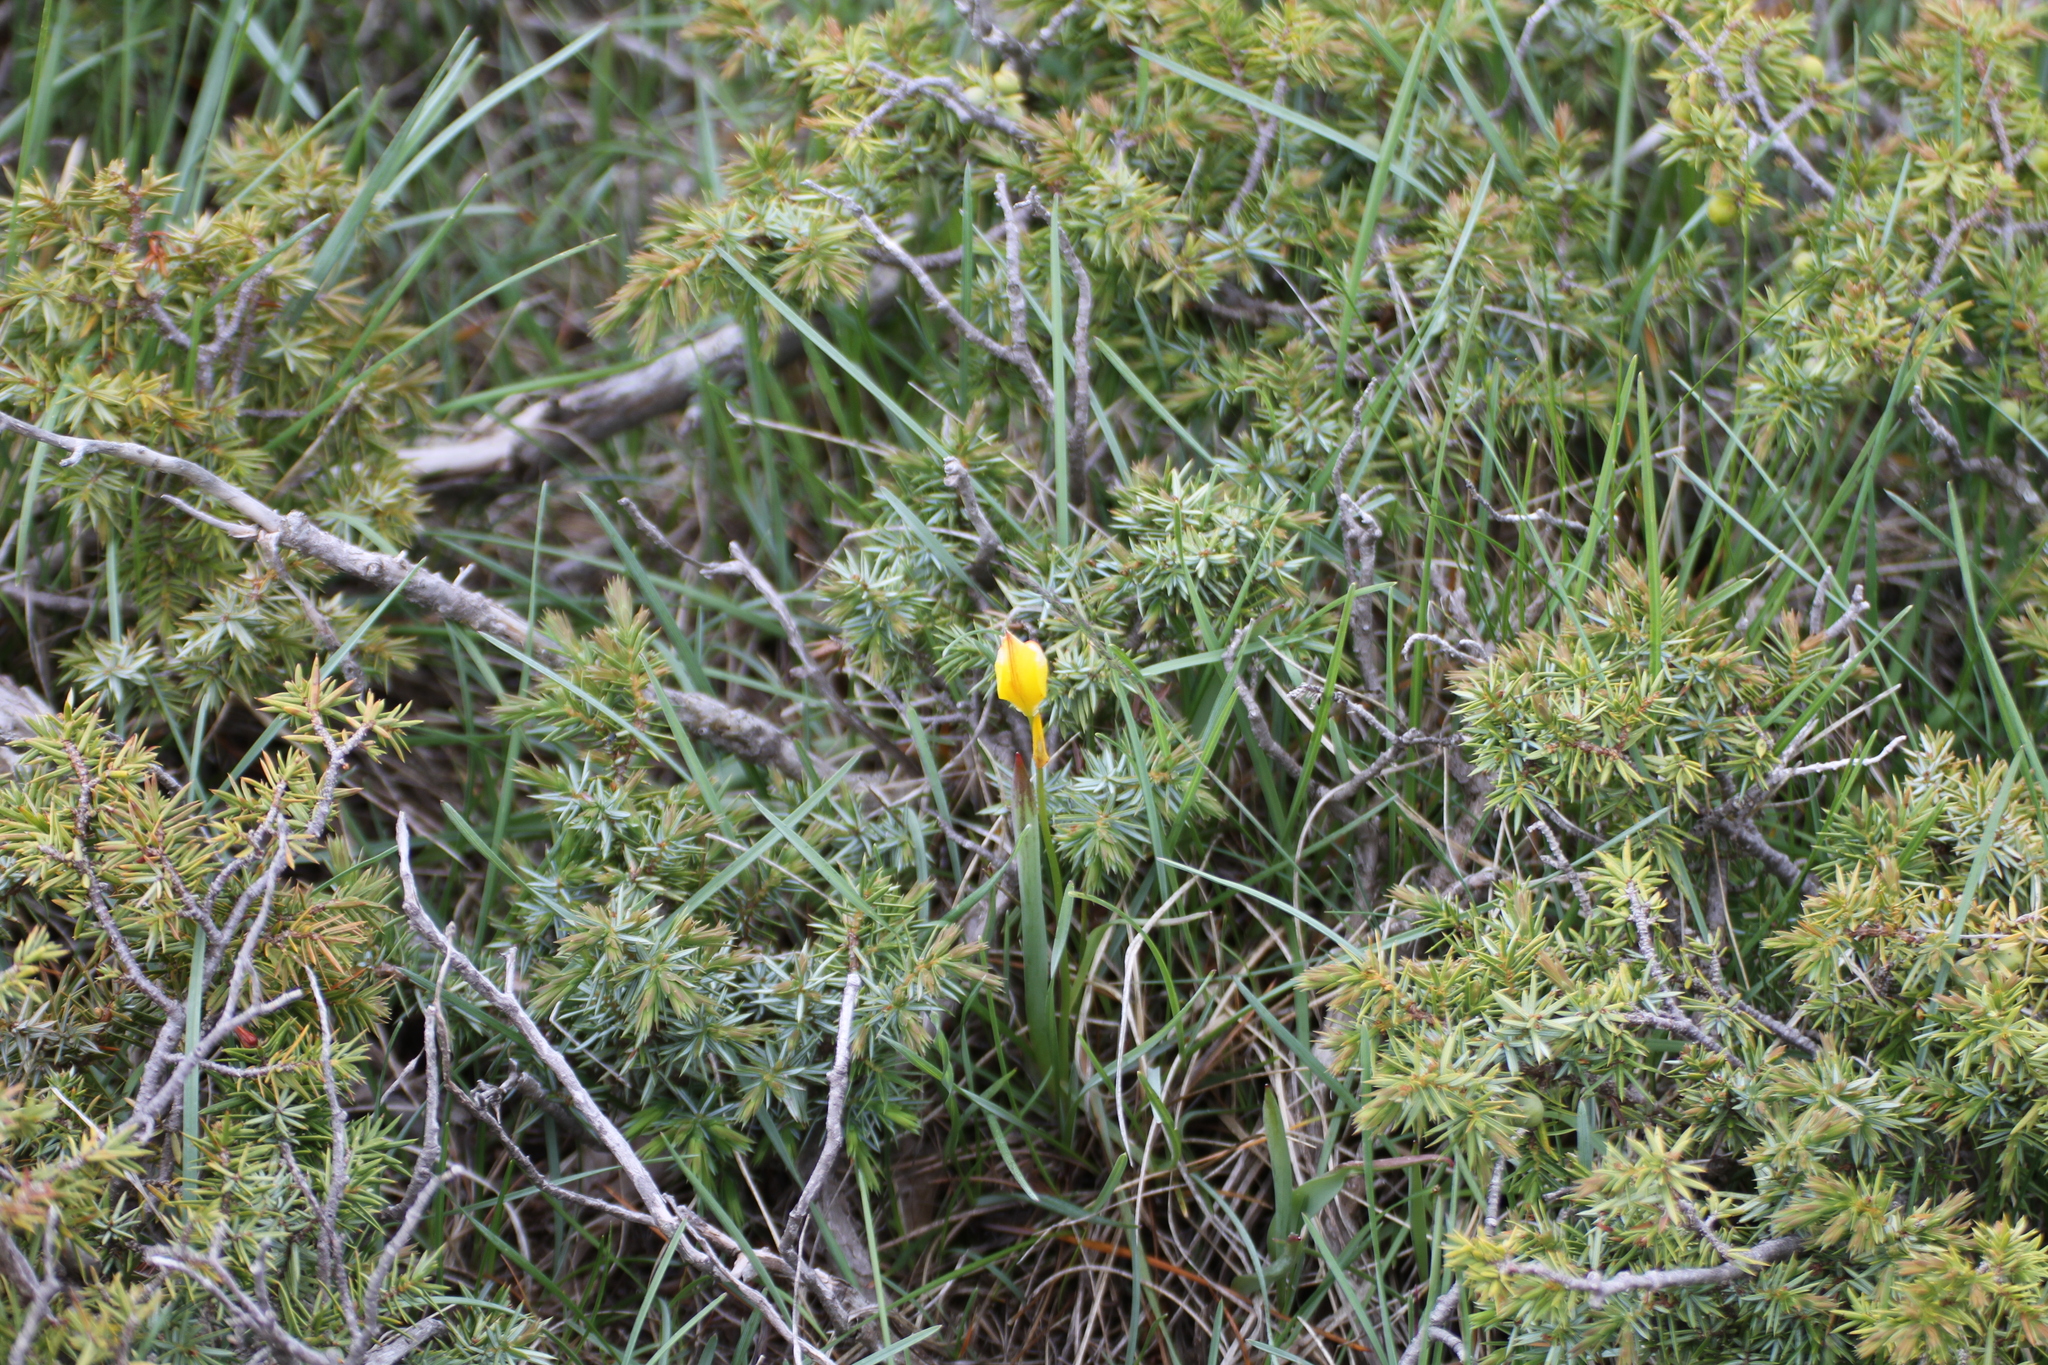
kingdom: Plantae
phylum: Tracheophyta
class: Liliopsida
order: Liliales
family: Liliaceae
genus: Tulipa
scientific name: Tulipa sylvestris
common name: Wild tulip
